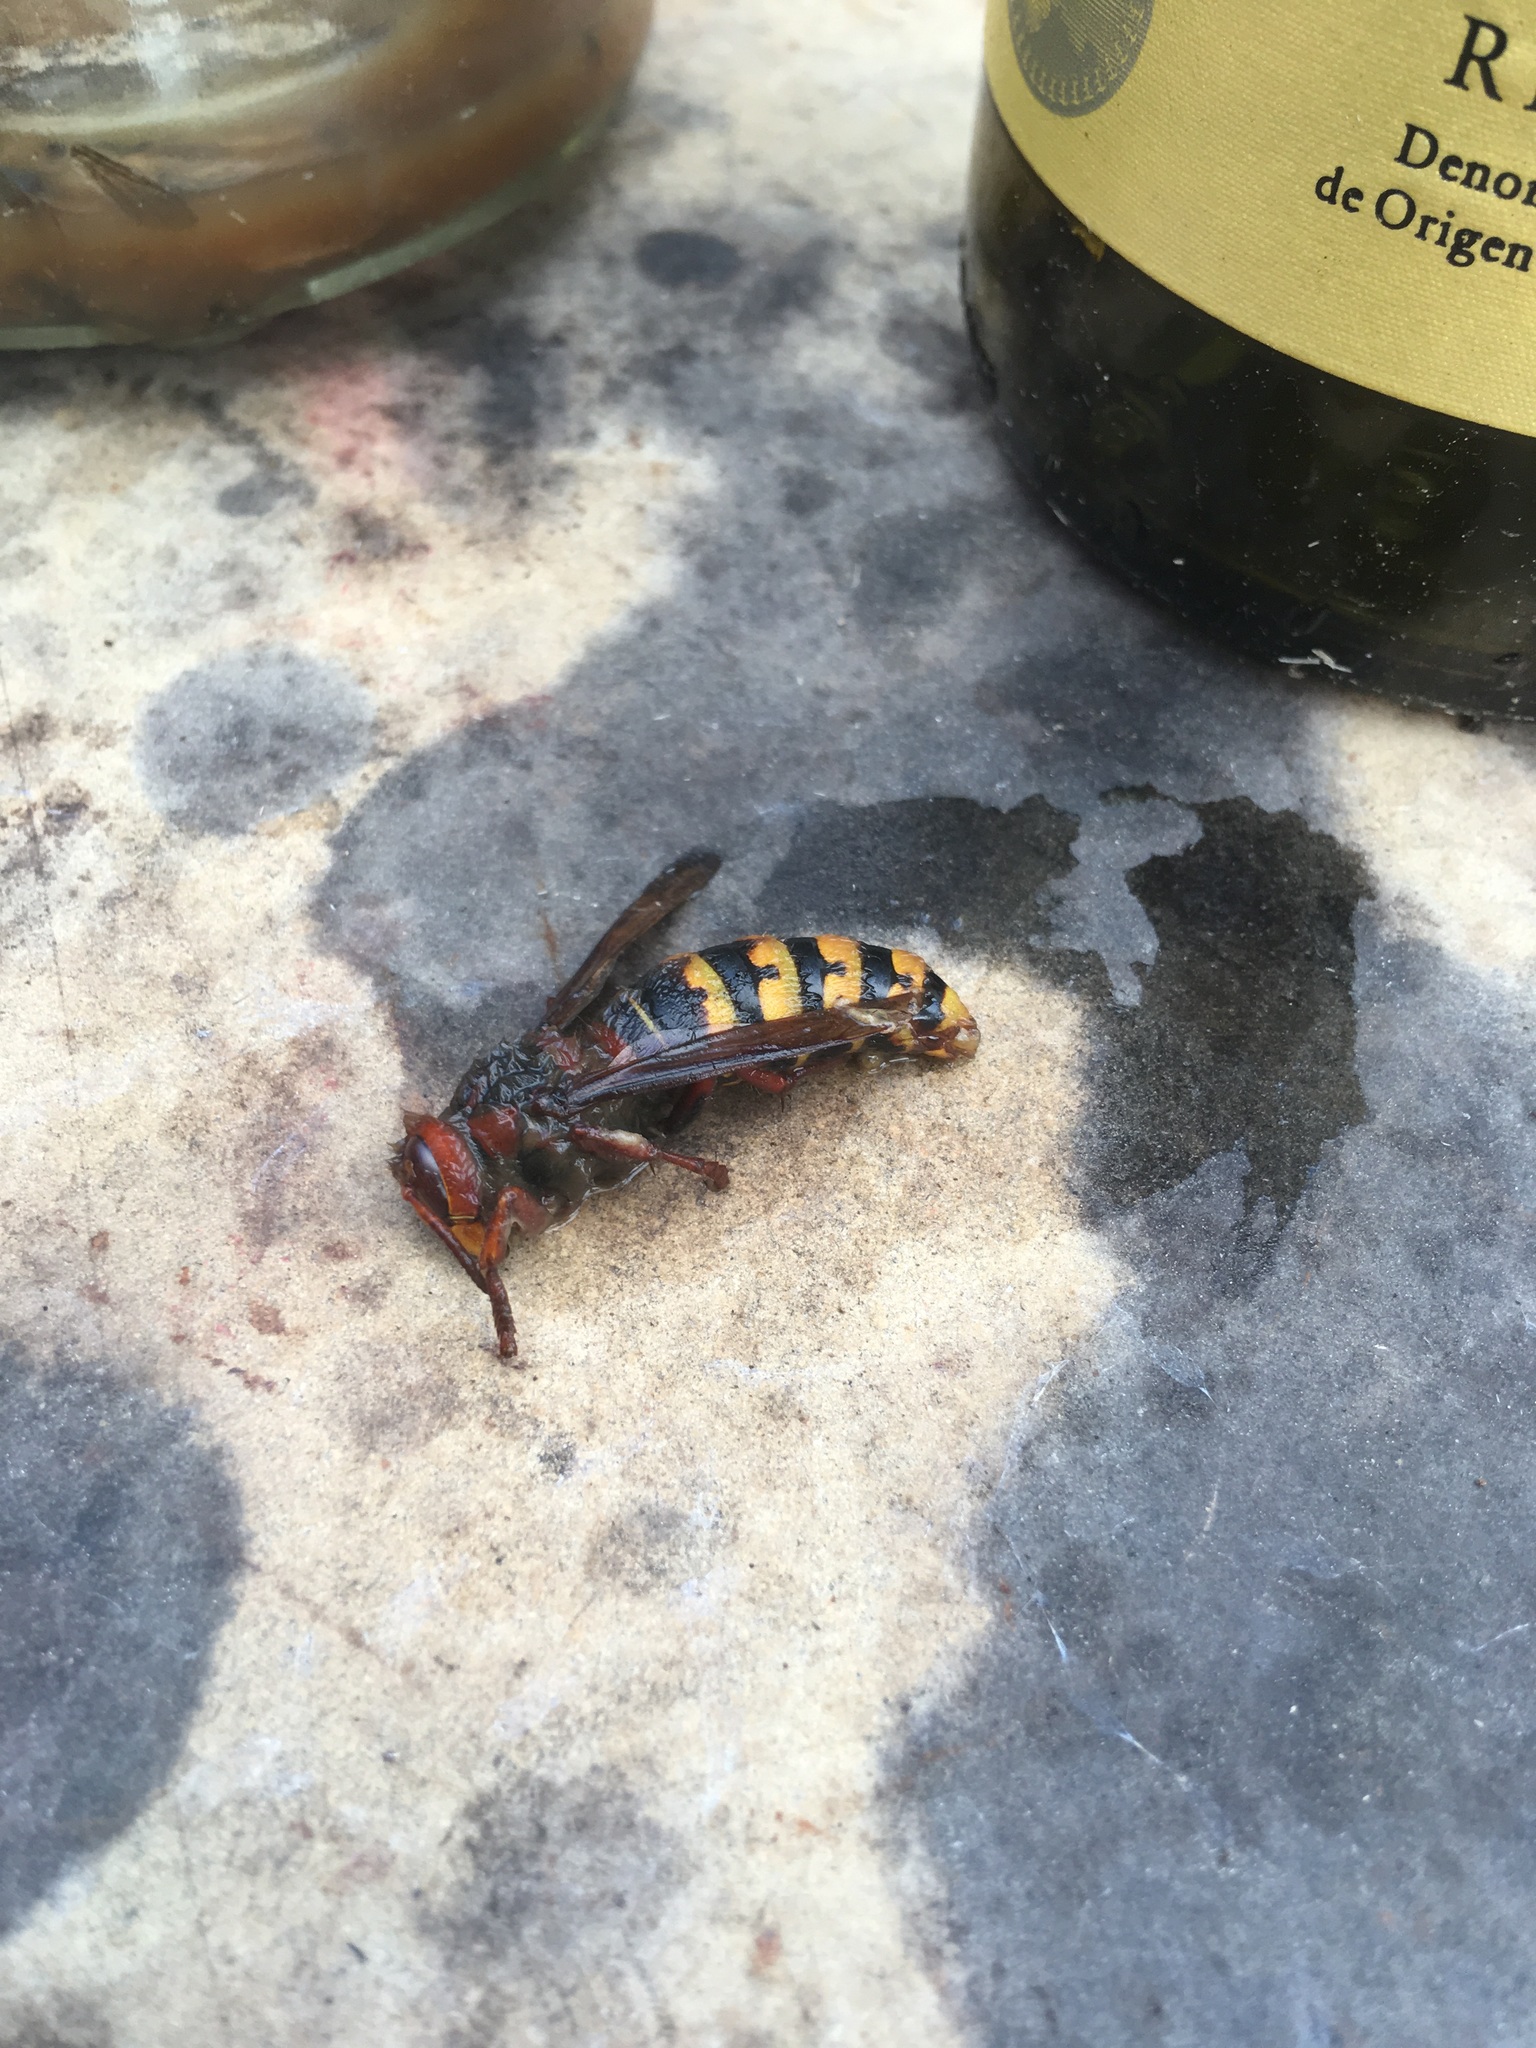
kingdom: Animalia
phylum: Arthropoda
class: Insecta
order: Hymenoptera
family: Vespidae
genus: Vespa
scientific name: Vespa crabro
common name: Hornet
